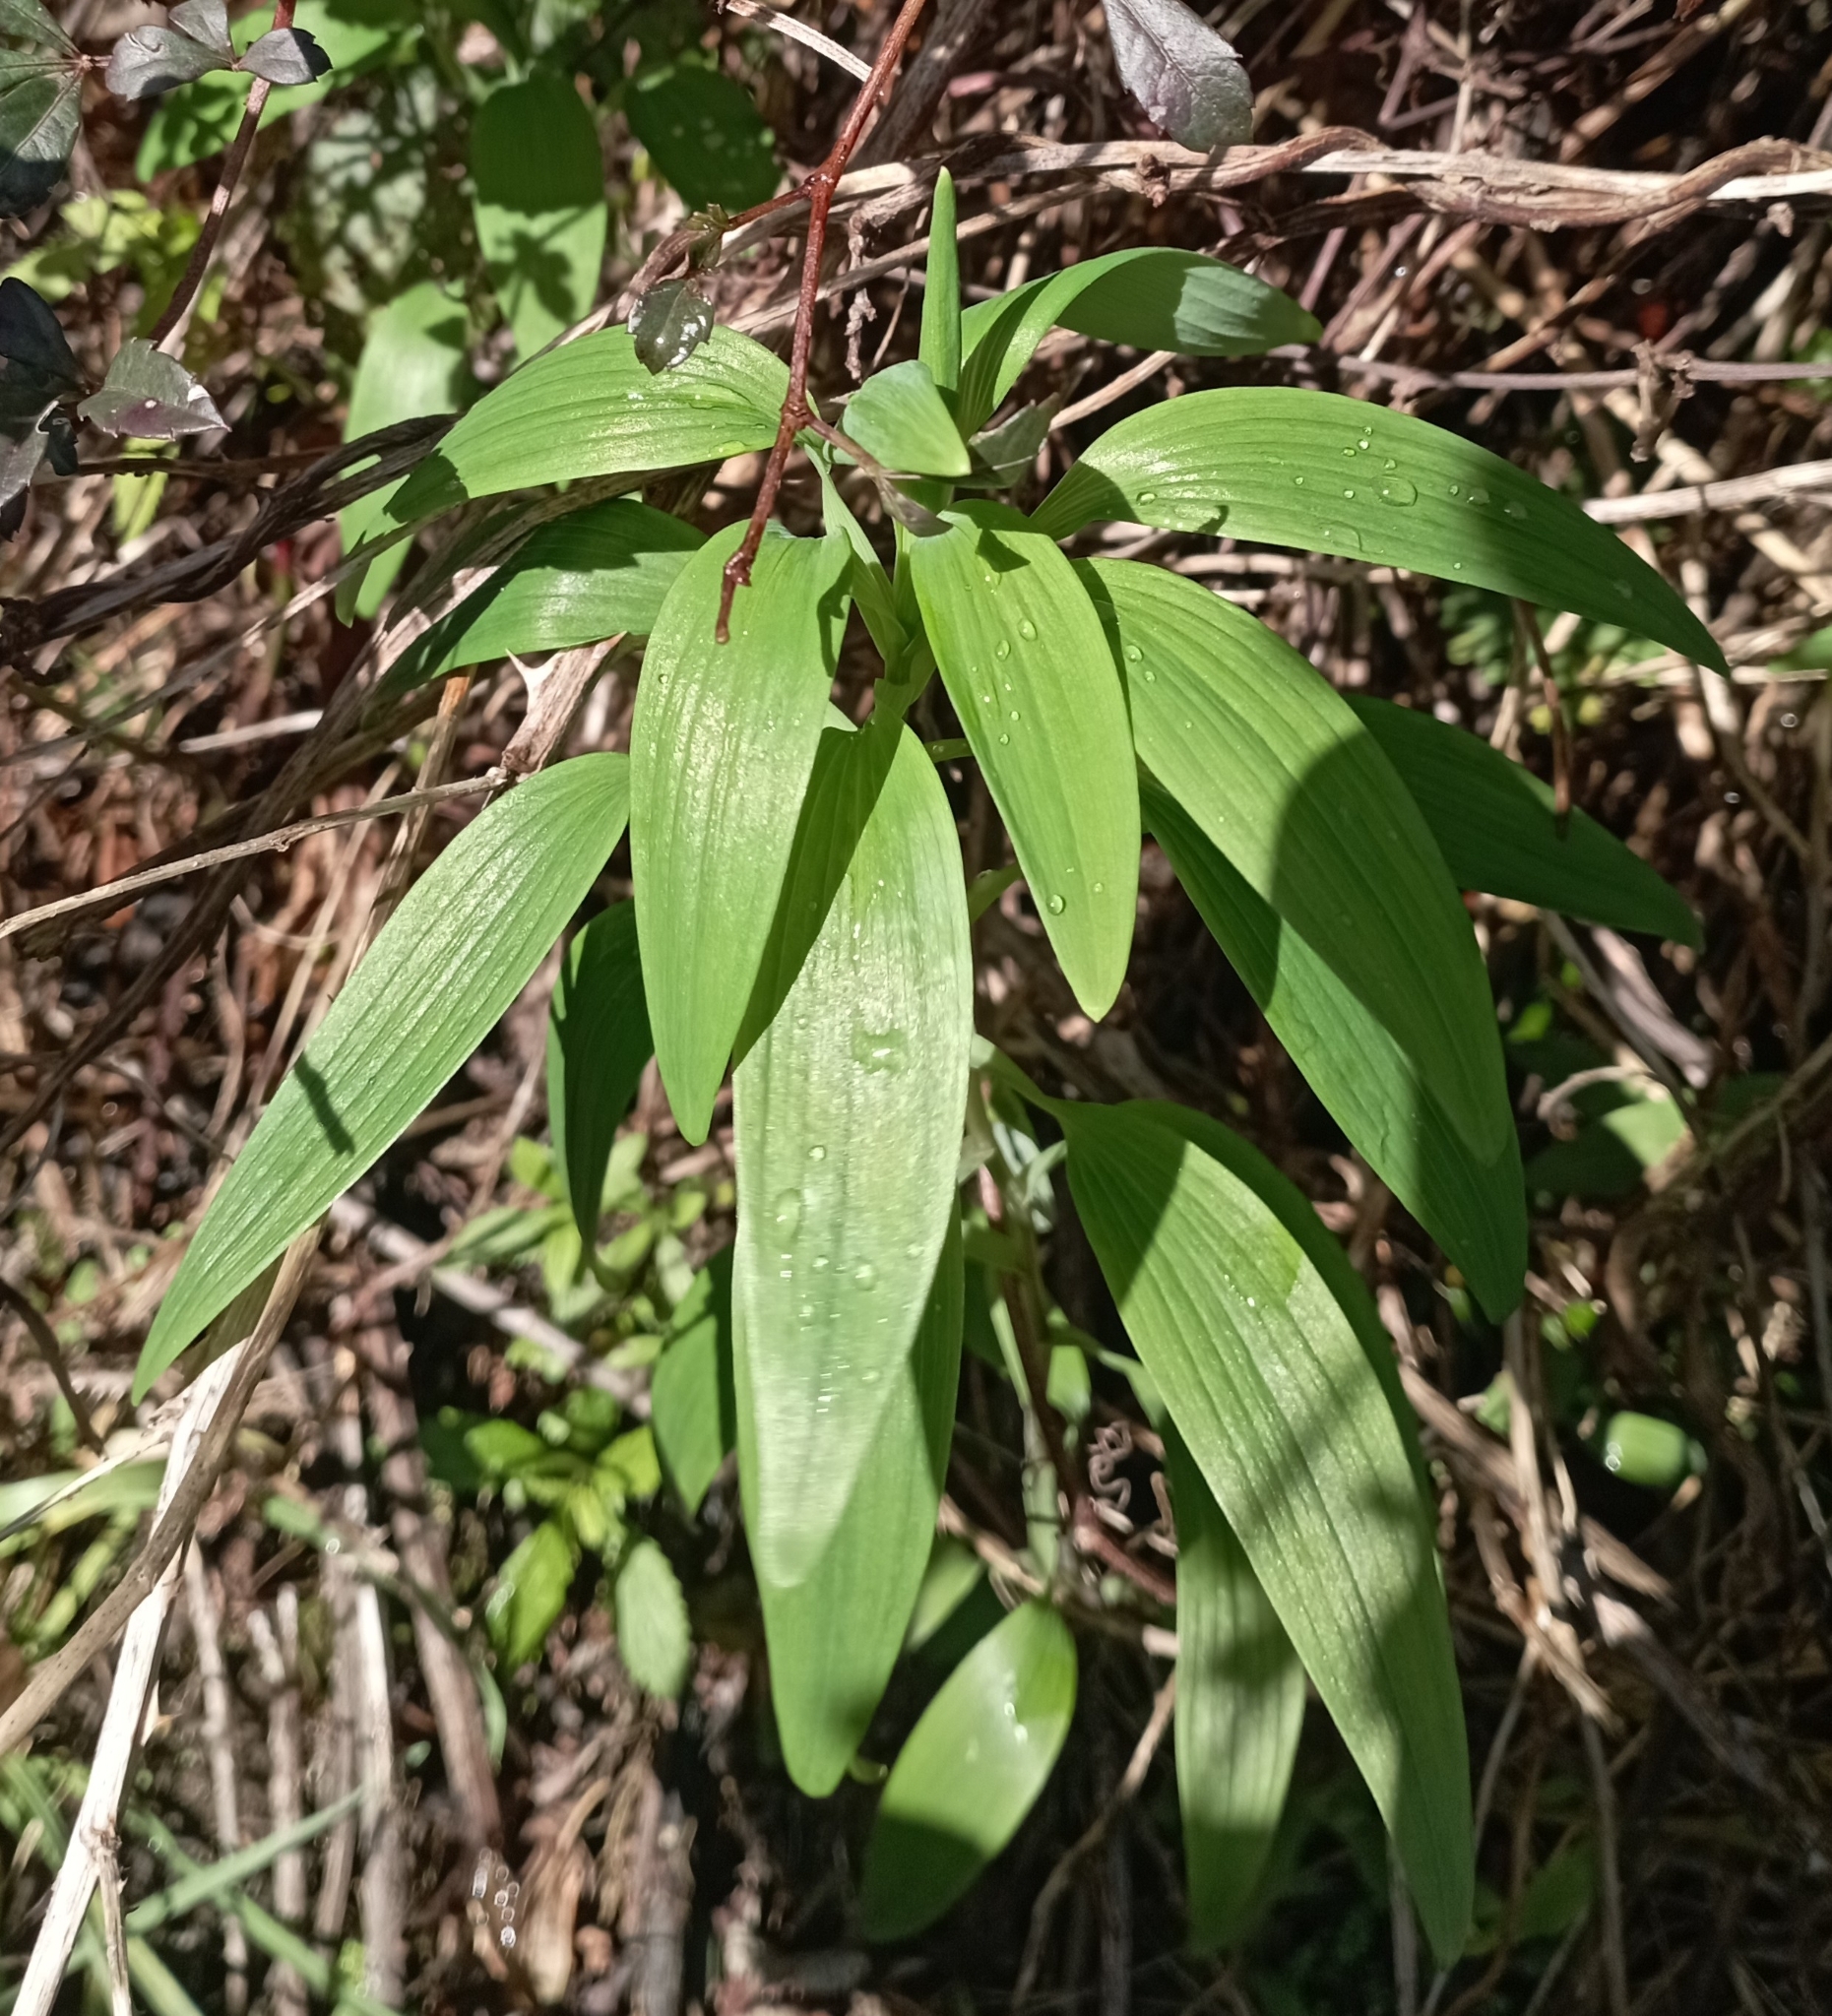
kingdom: Plantae
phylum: Tracheophyta
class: Liliopsida
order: Liliales
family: Alstroemeriaceae
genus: Alstroemeria
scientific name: Alstroemeria aurea
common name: Peruvian lily
